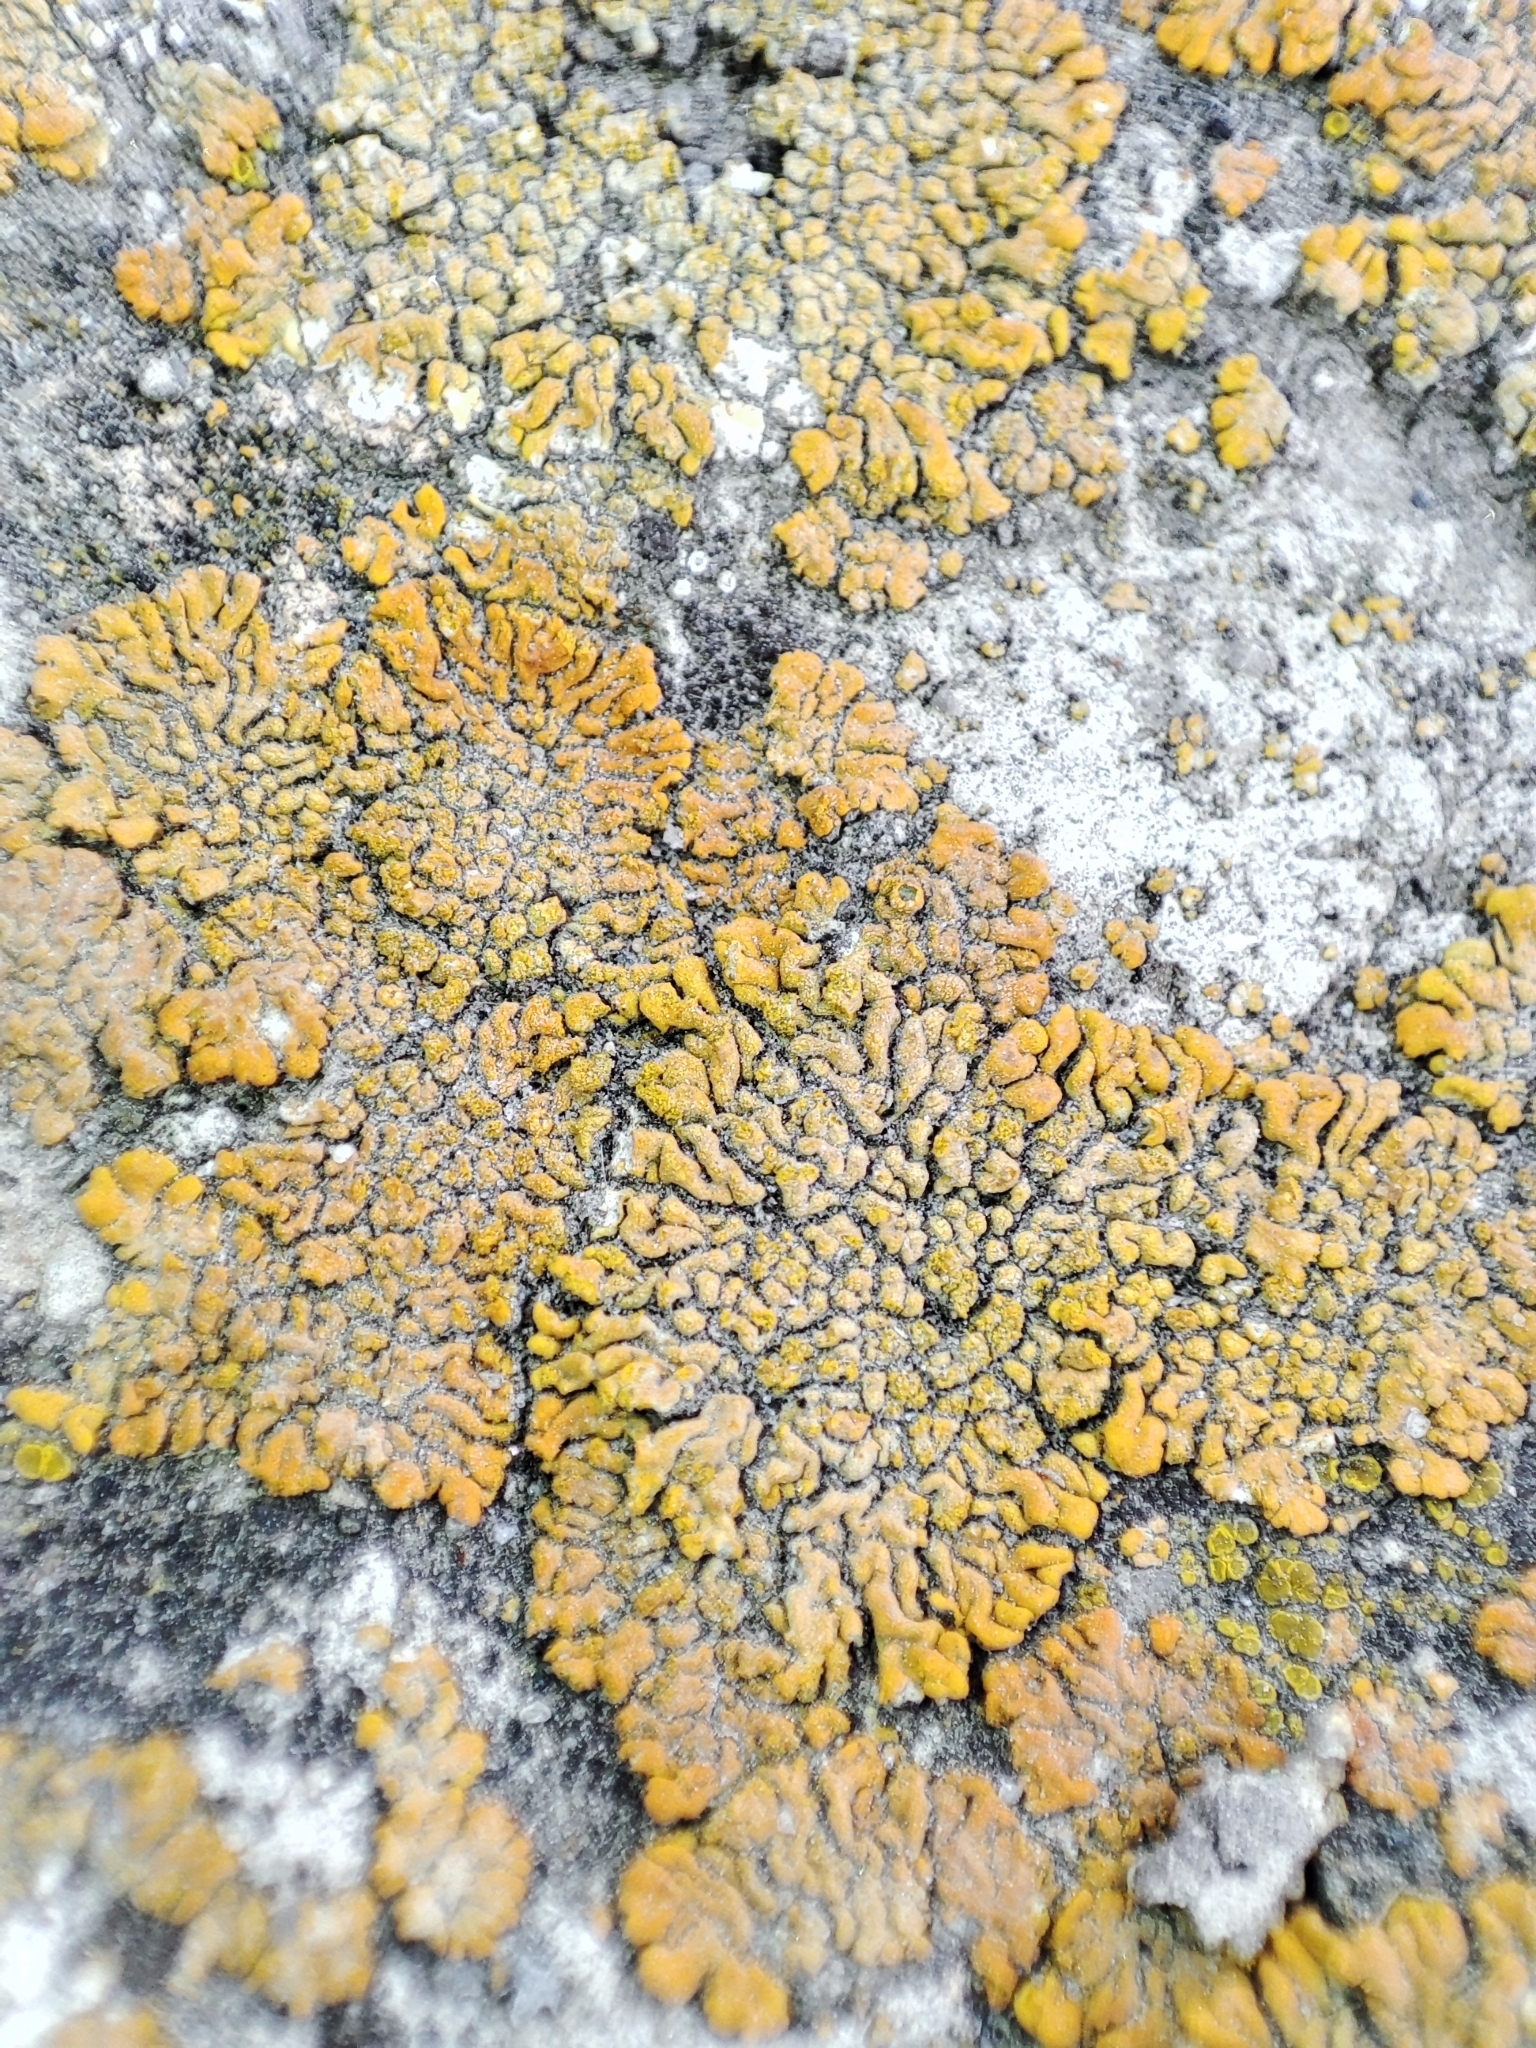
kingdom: Fungi
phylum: Ascomycota
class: Lecanoromycetes
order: Teloschistales
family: Teloschistaceae
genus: Calogaya
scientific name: Calogaya decipiens
